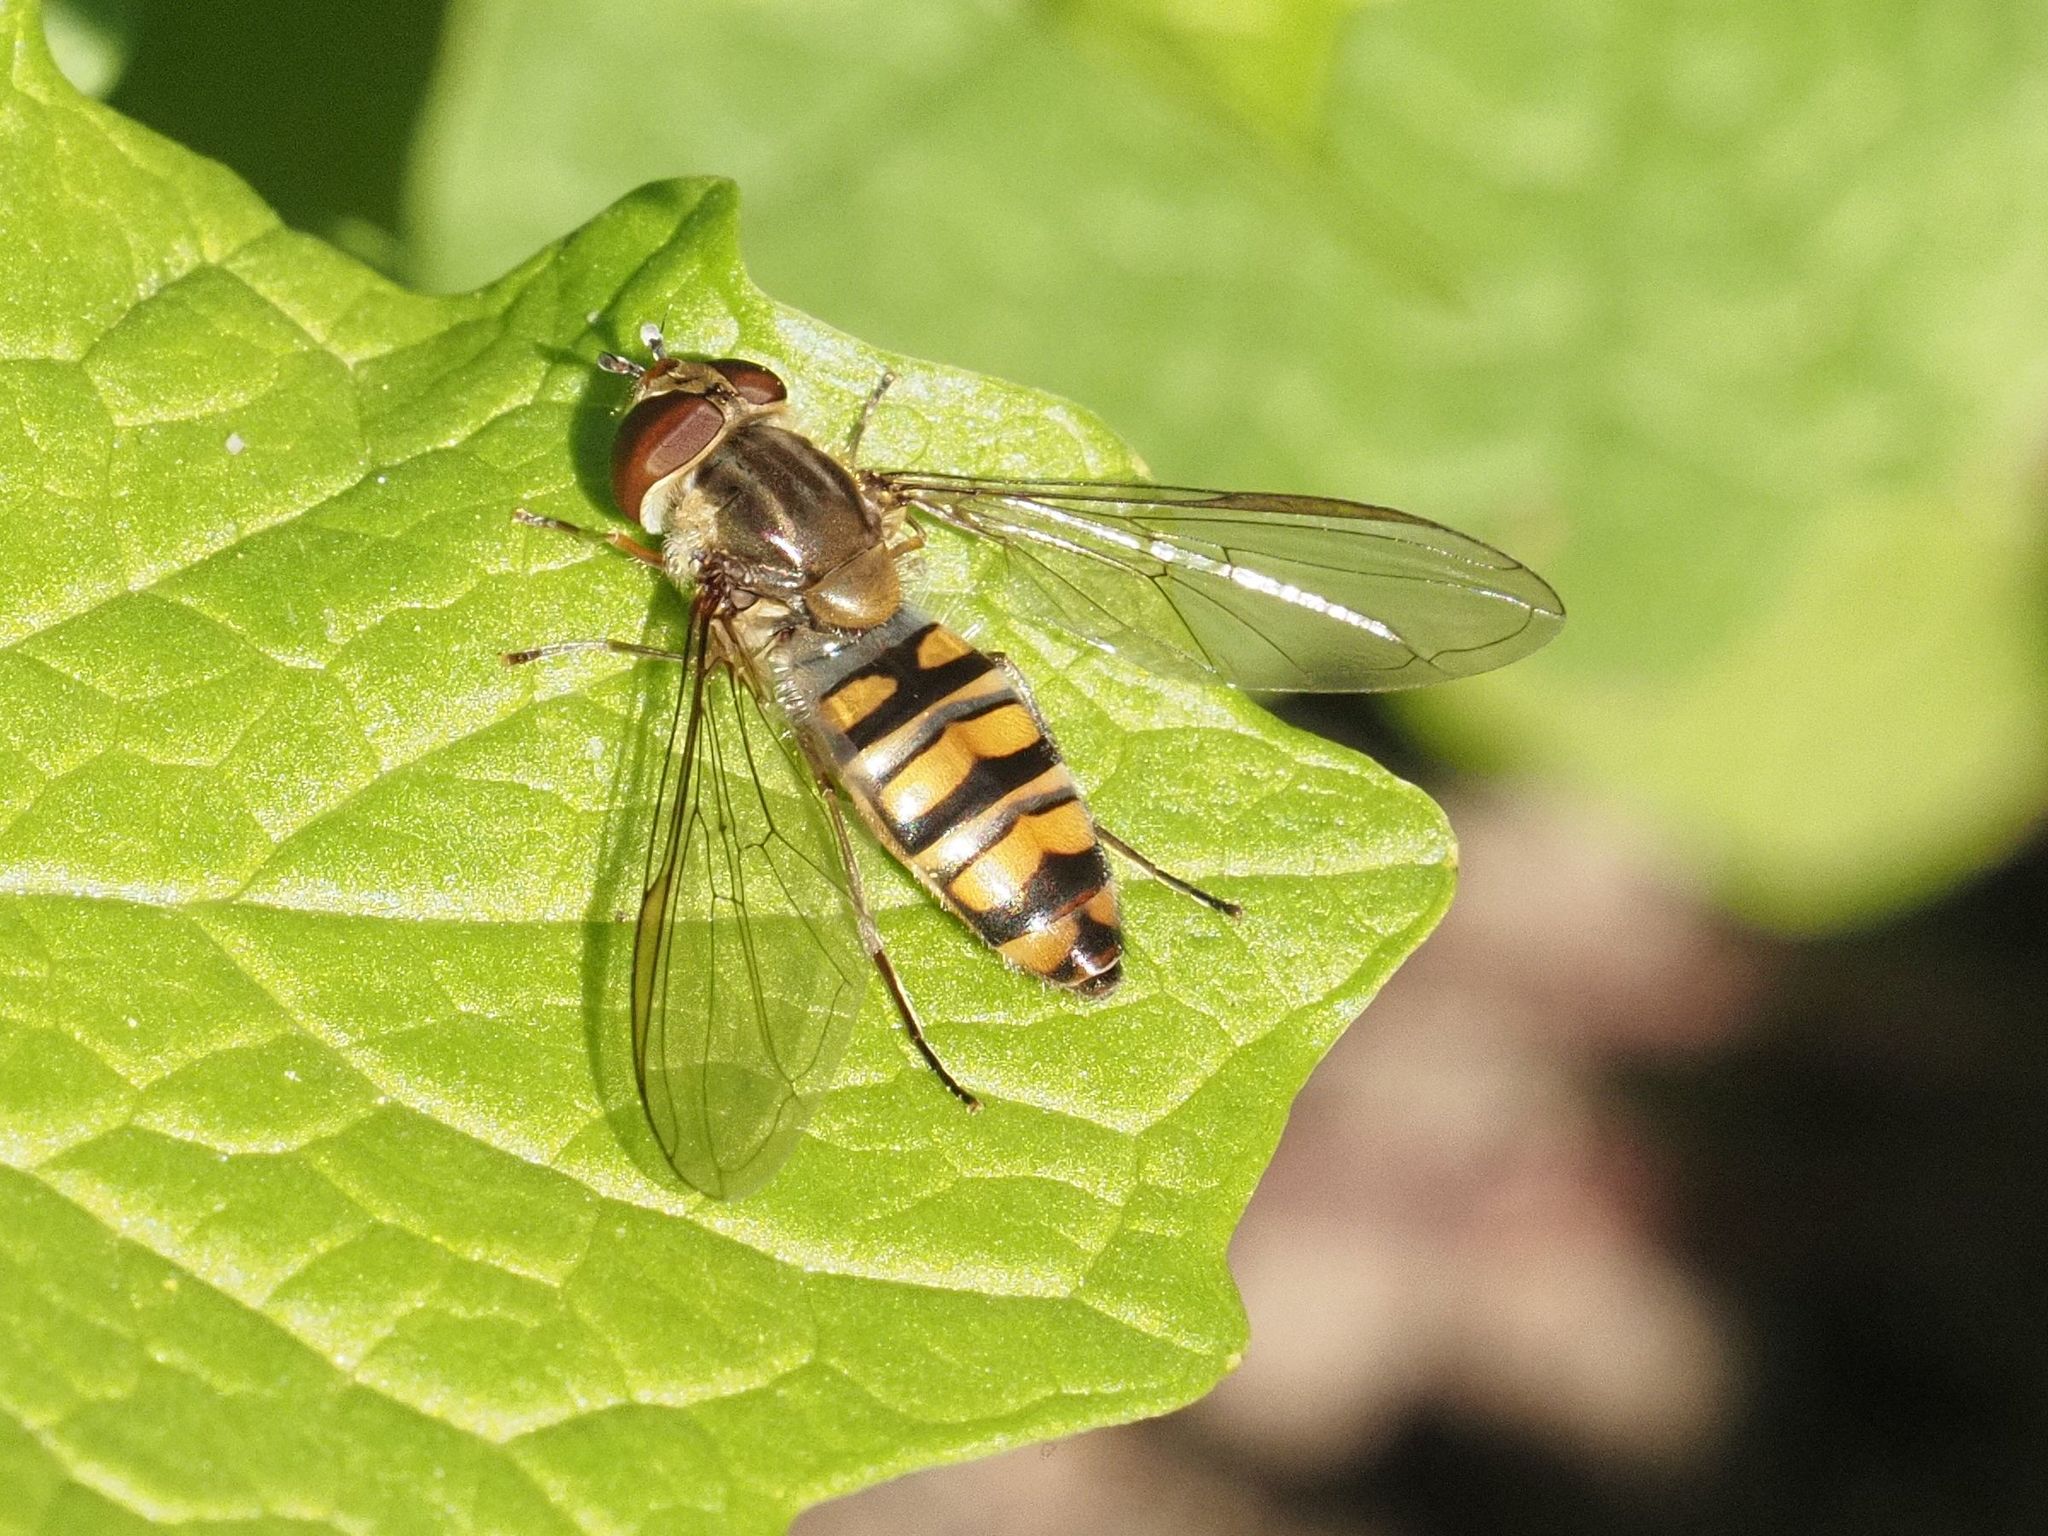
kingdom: Animalia
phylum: Arthropoda
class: Insecta
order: Diptera
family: Syrphidae
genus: Episyrphus
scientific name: Episyrphus balteatus
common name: Marmalade hoverfly
